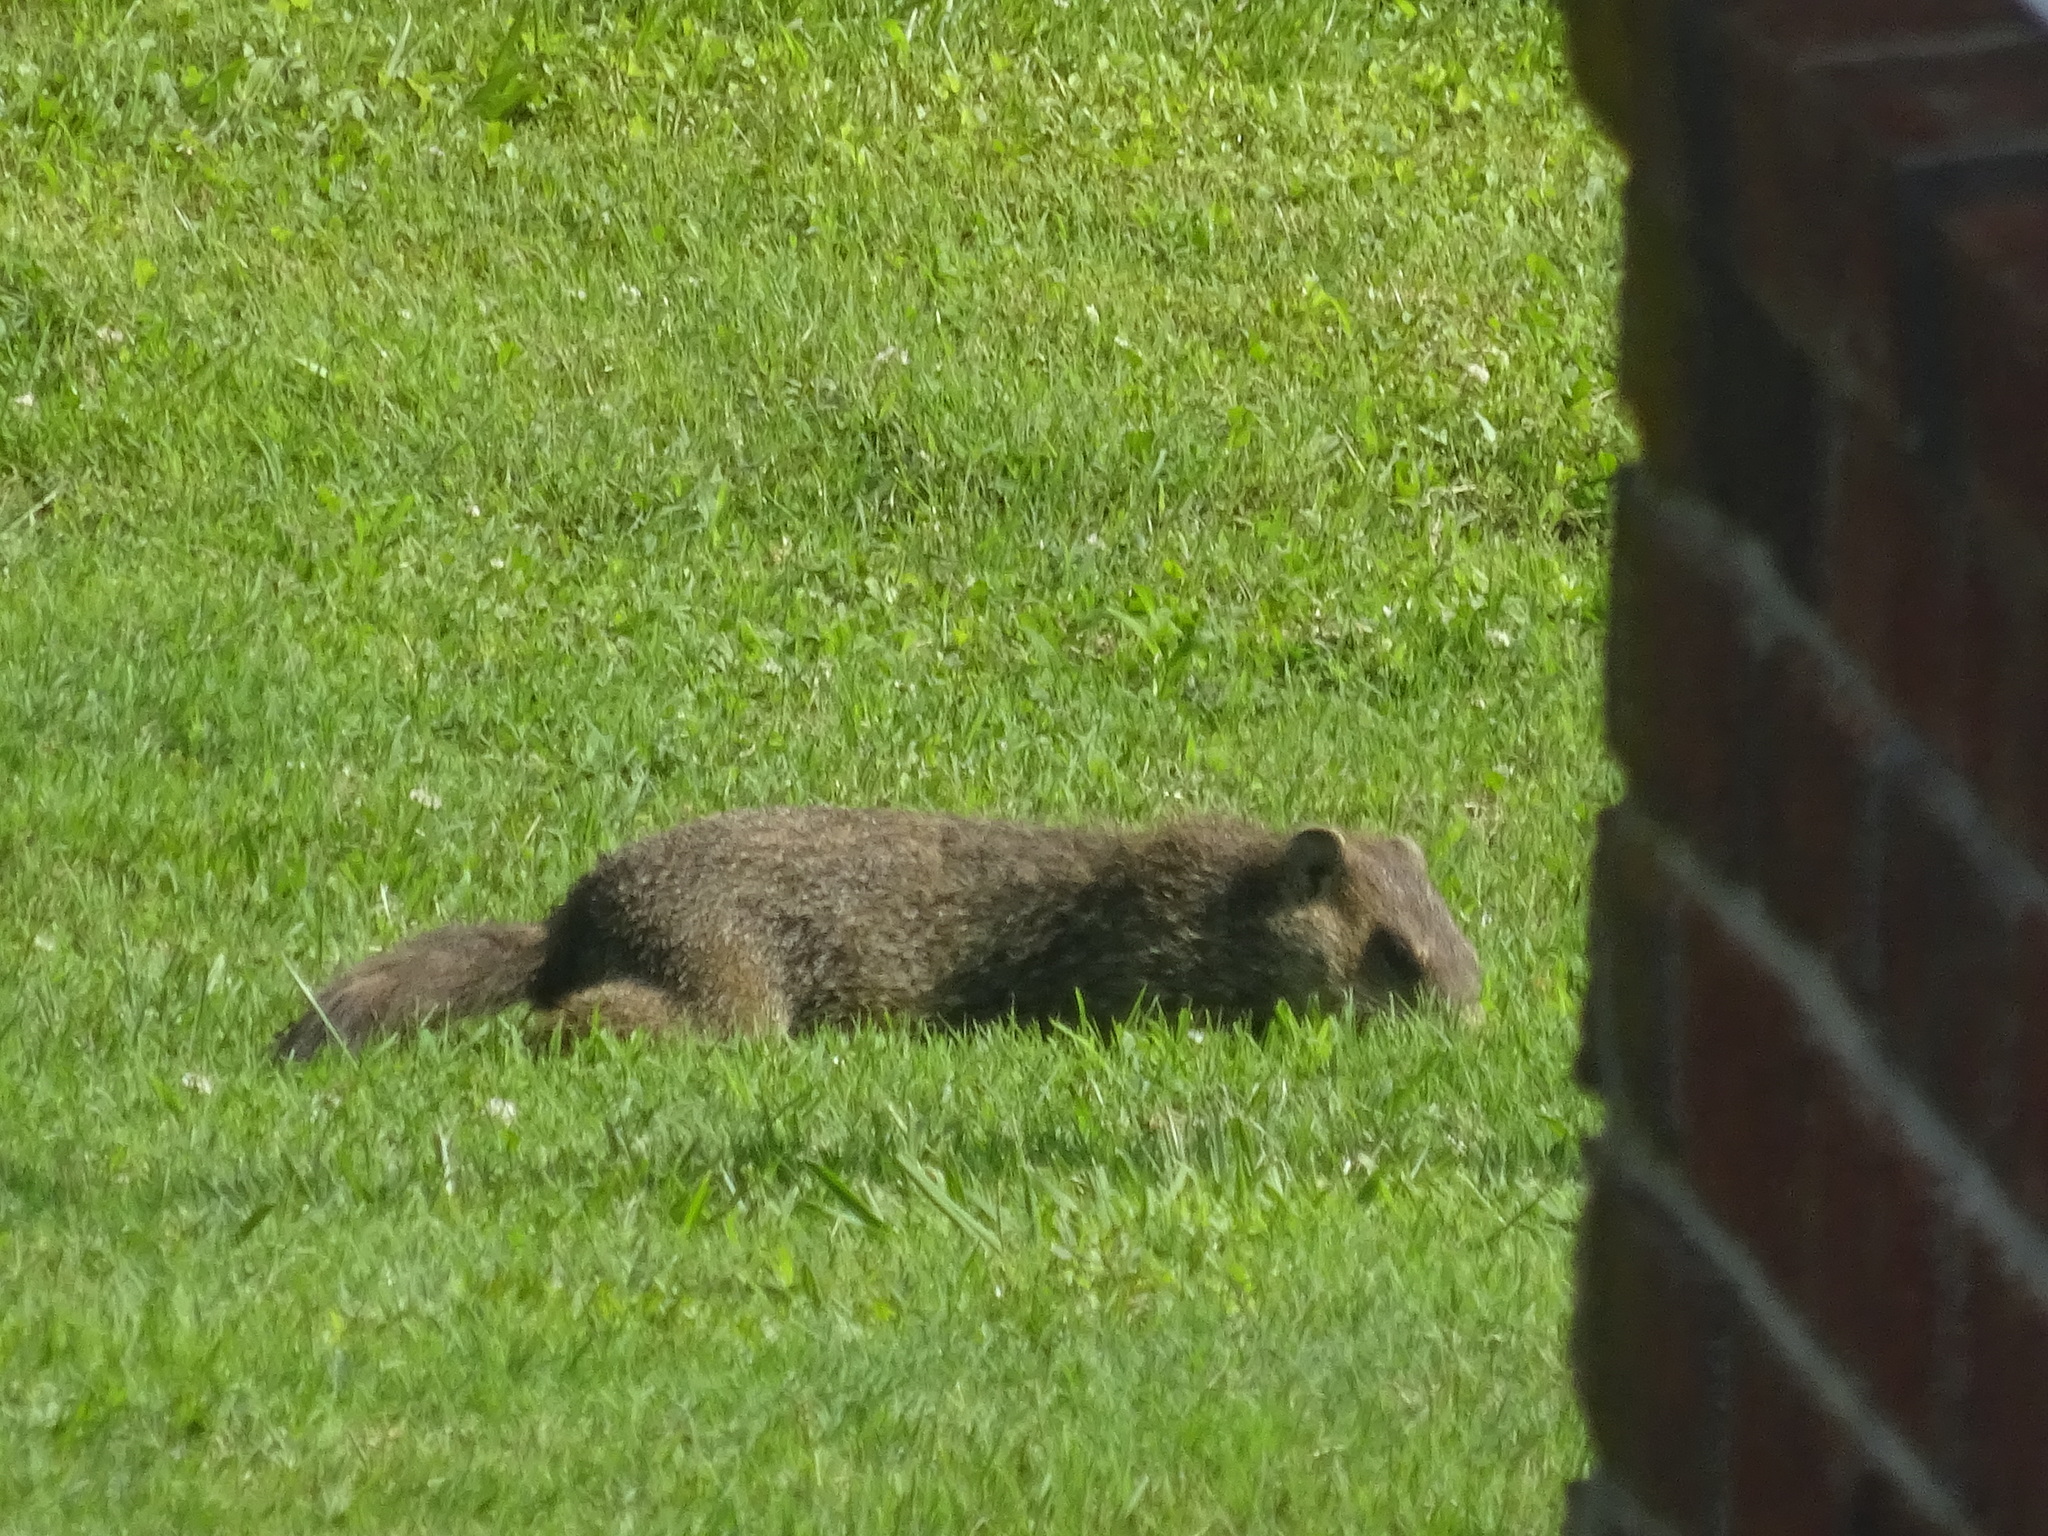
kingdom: Animalia
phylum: Chordata
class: Mammalia
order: Rodentia
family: Sciuridae
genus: Marmota
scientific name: Marmota monax
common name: Groundhog
